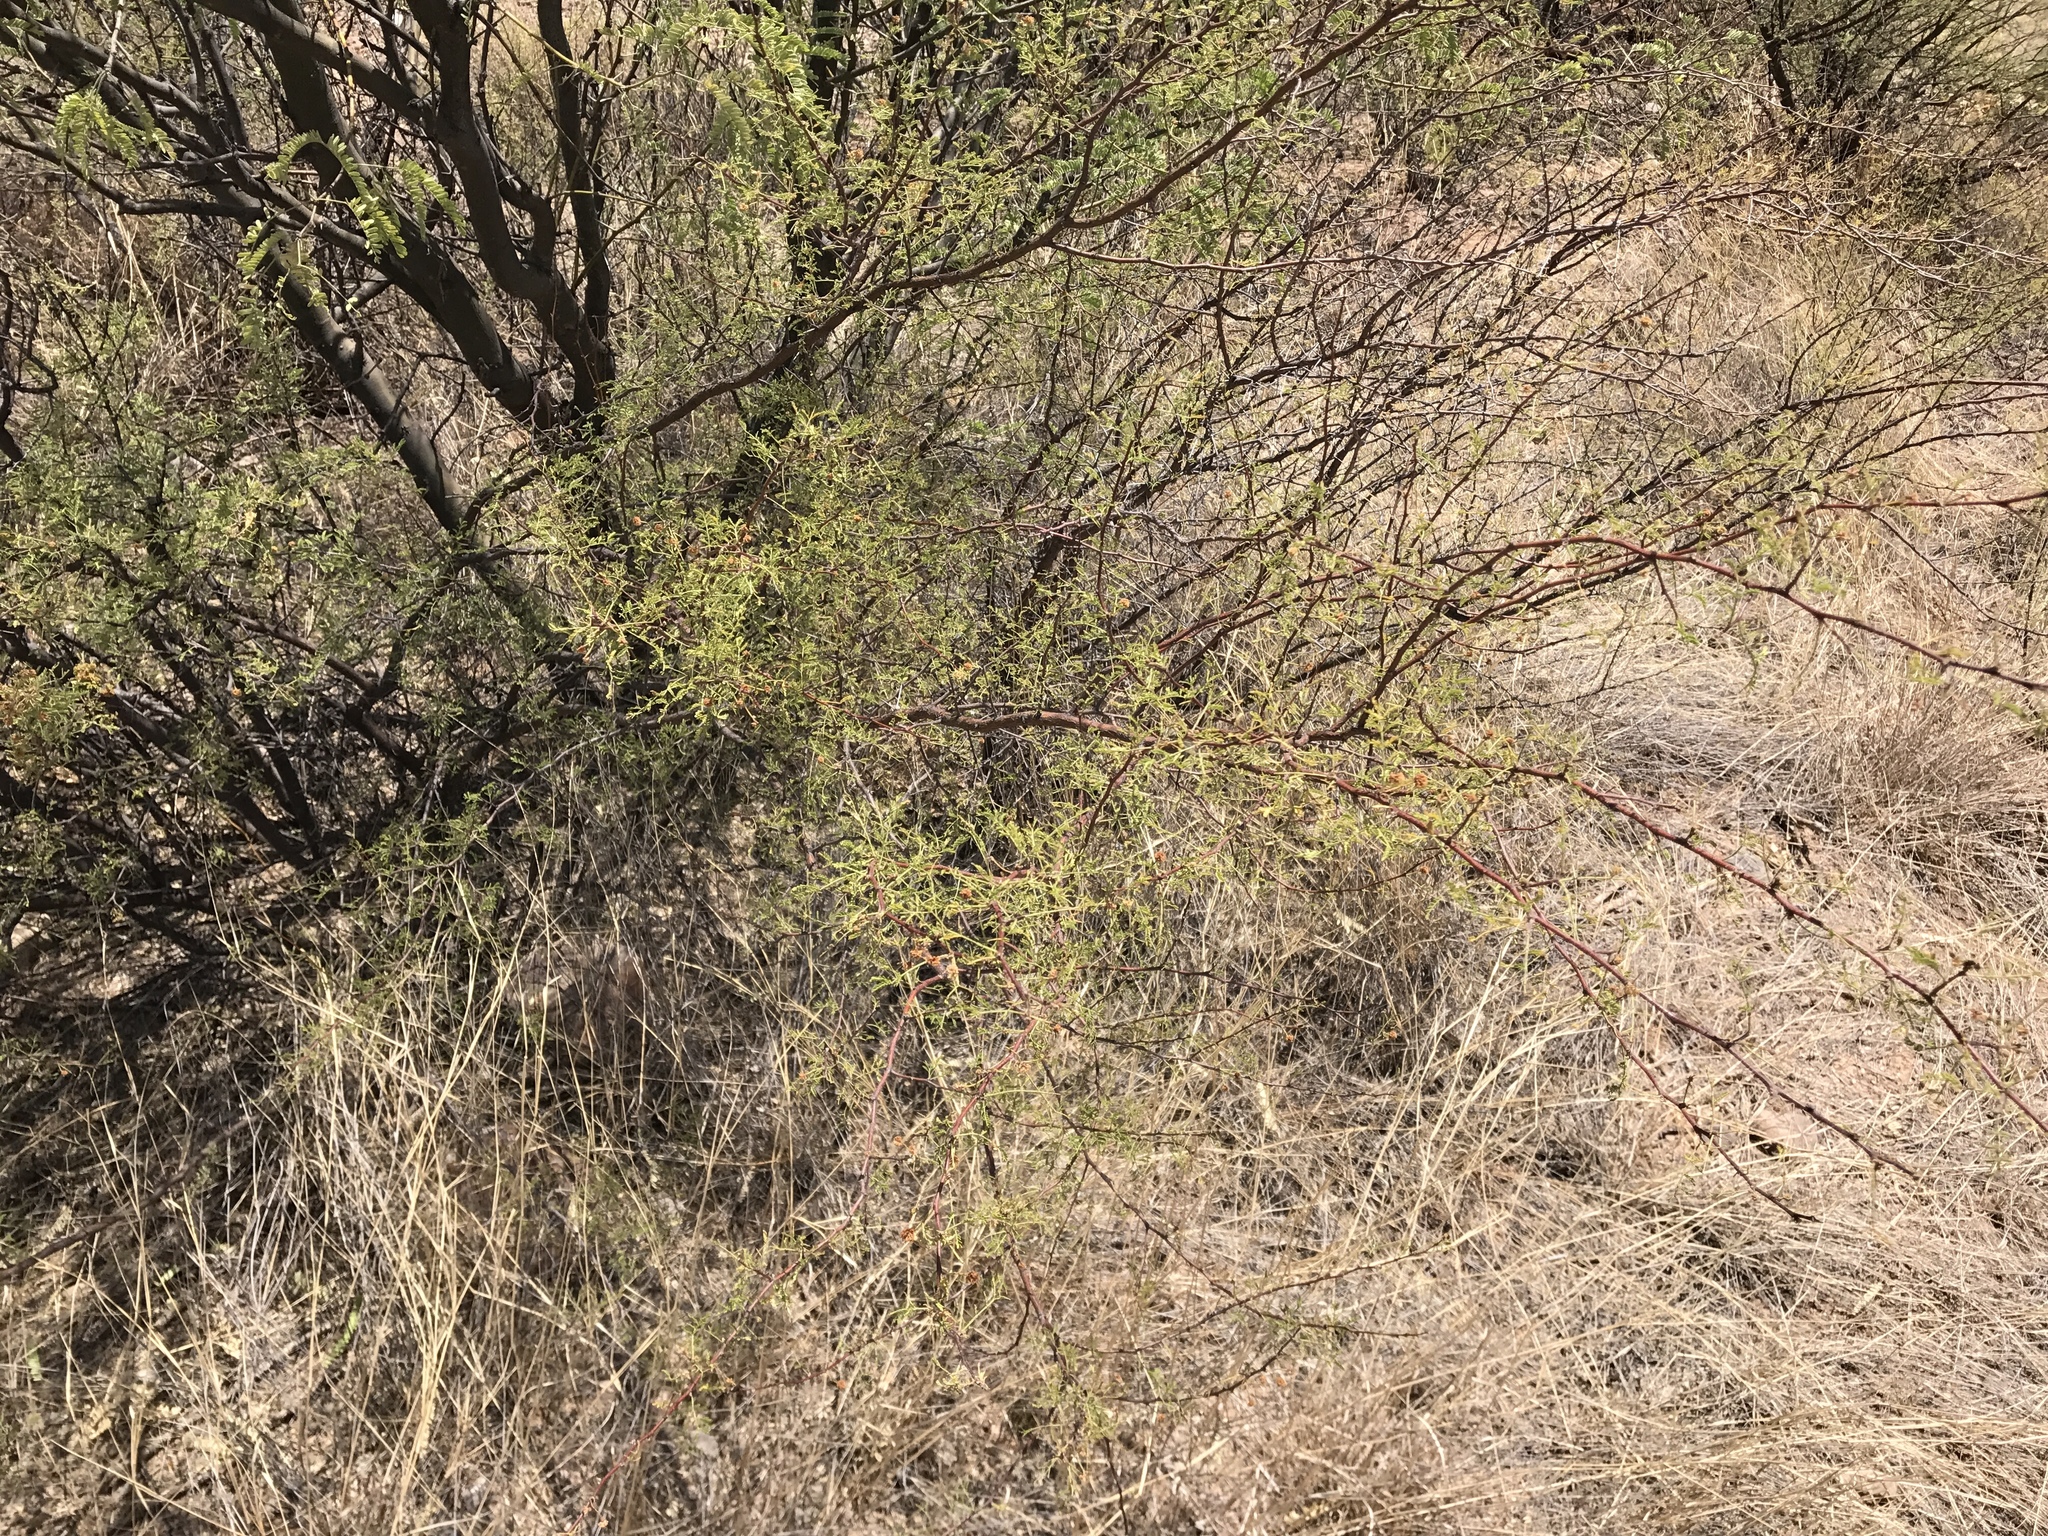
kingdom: Plantae
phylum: Tracheophyta
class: Magnoliopsida
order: Fabales
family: Fabaceae
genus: Vachellia
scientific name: Vachellia constricta
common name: Mescat acacia
